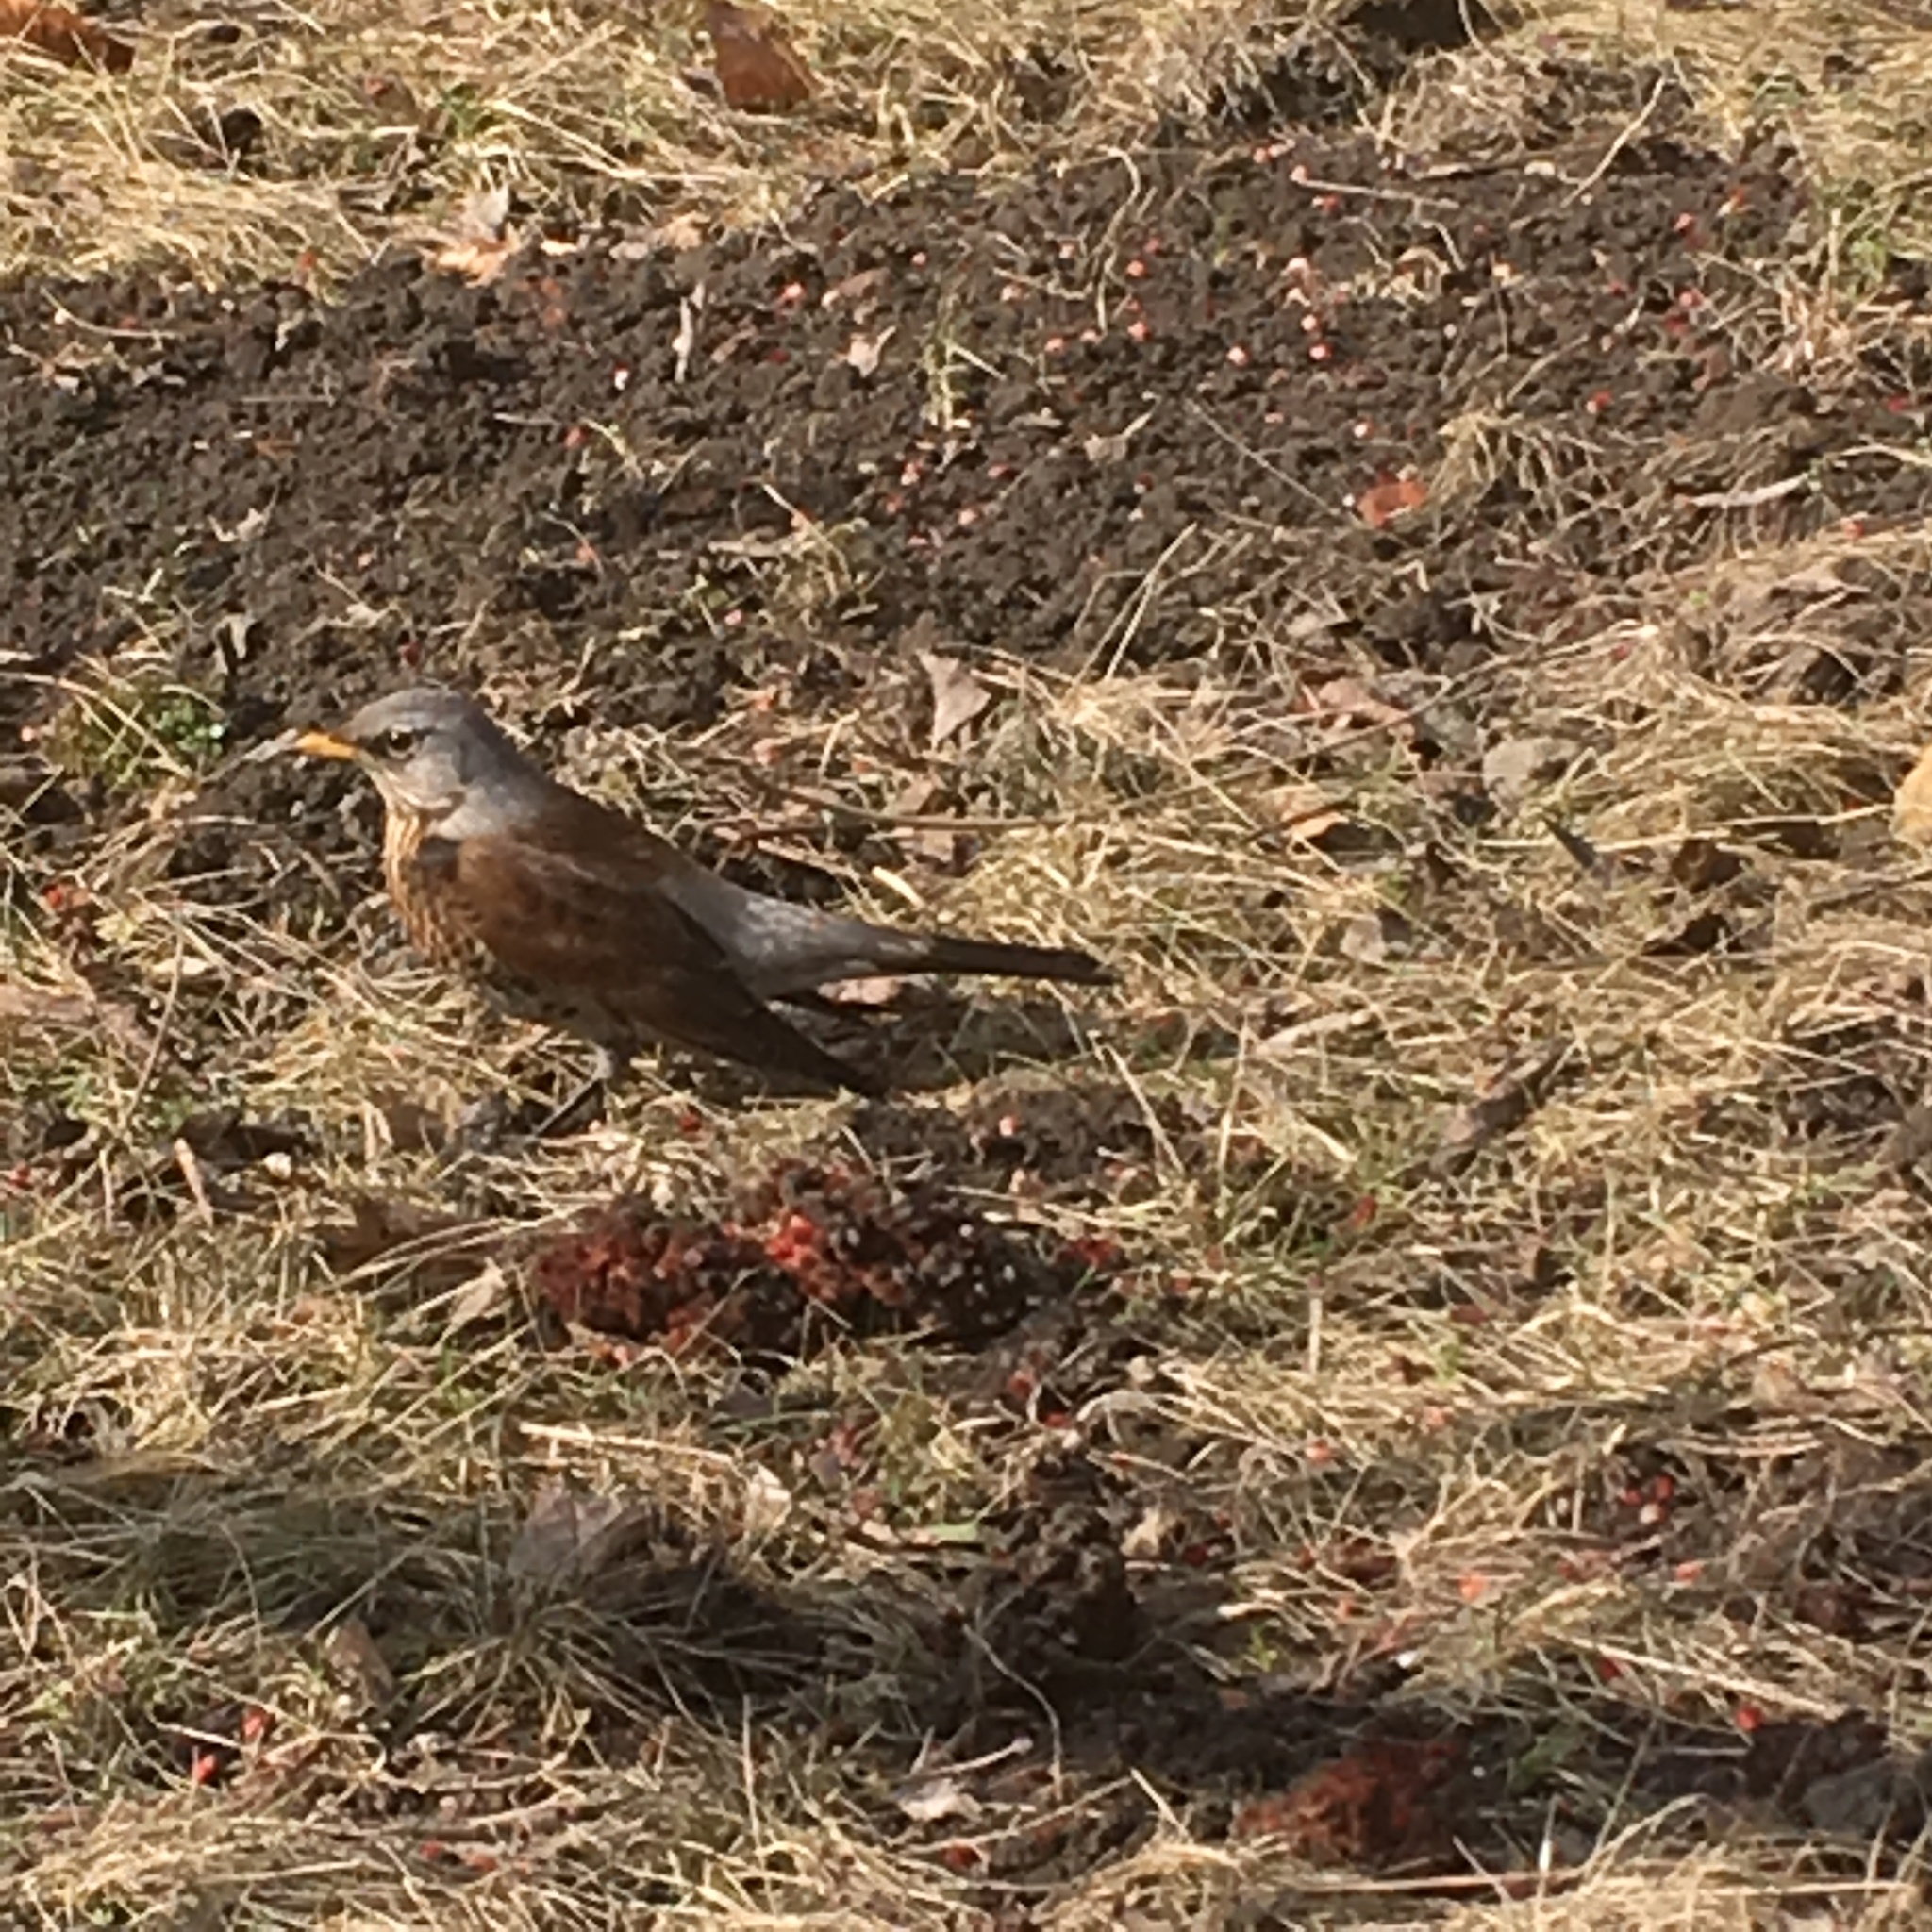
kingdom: Animalia
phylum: Chordata
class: Aves
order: Passeriformes
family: Turdidae
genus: Turdus
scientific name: Turdus pilaris
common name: Fieldfare
